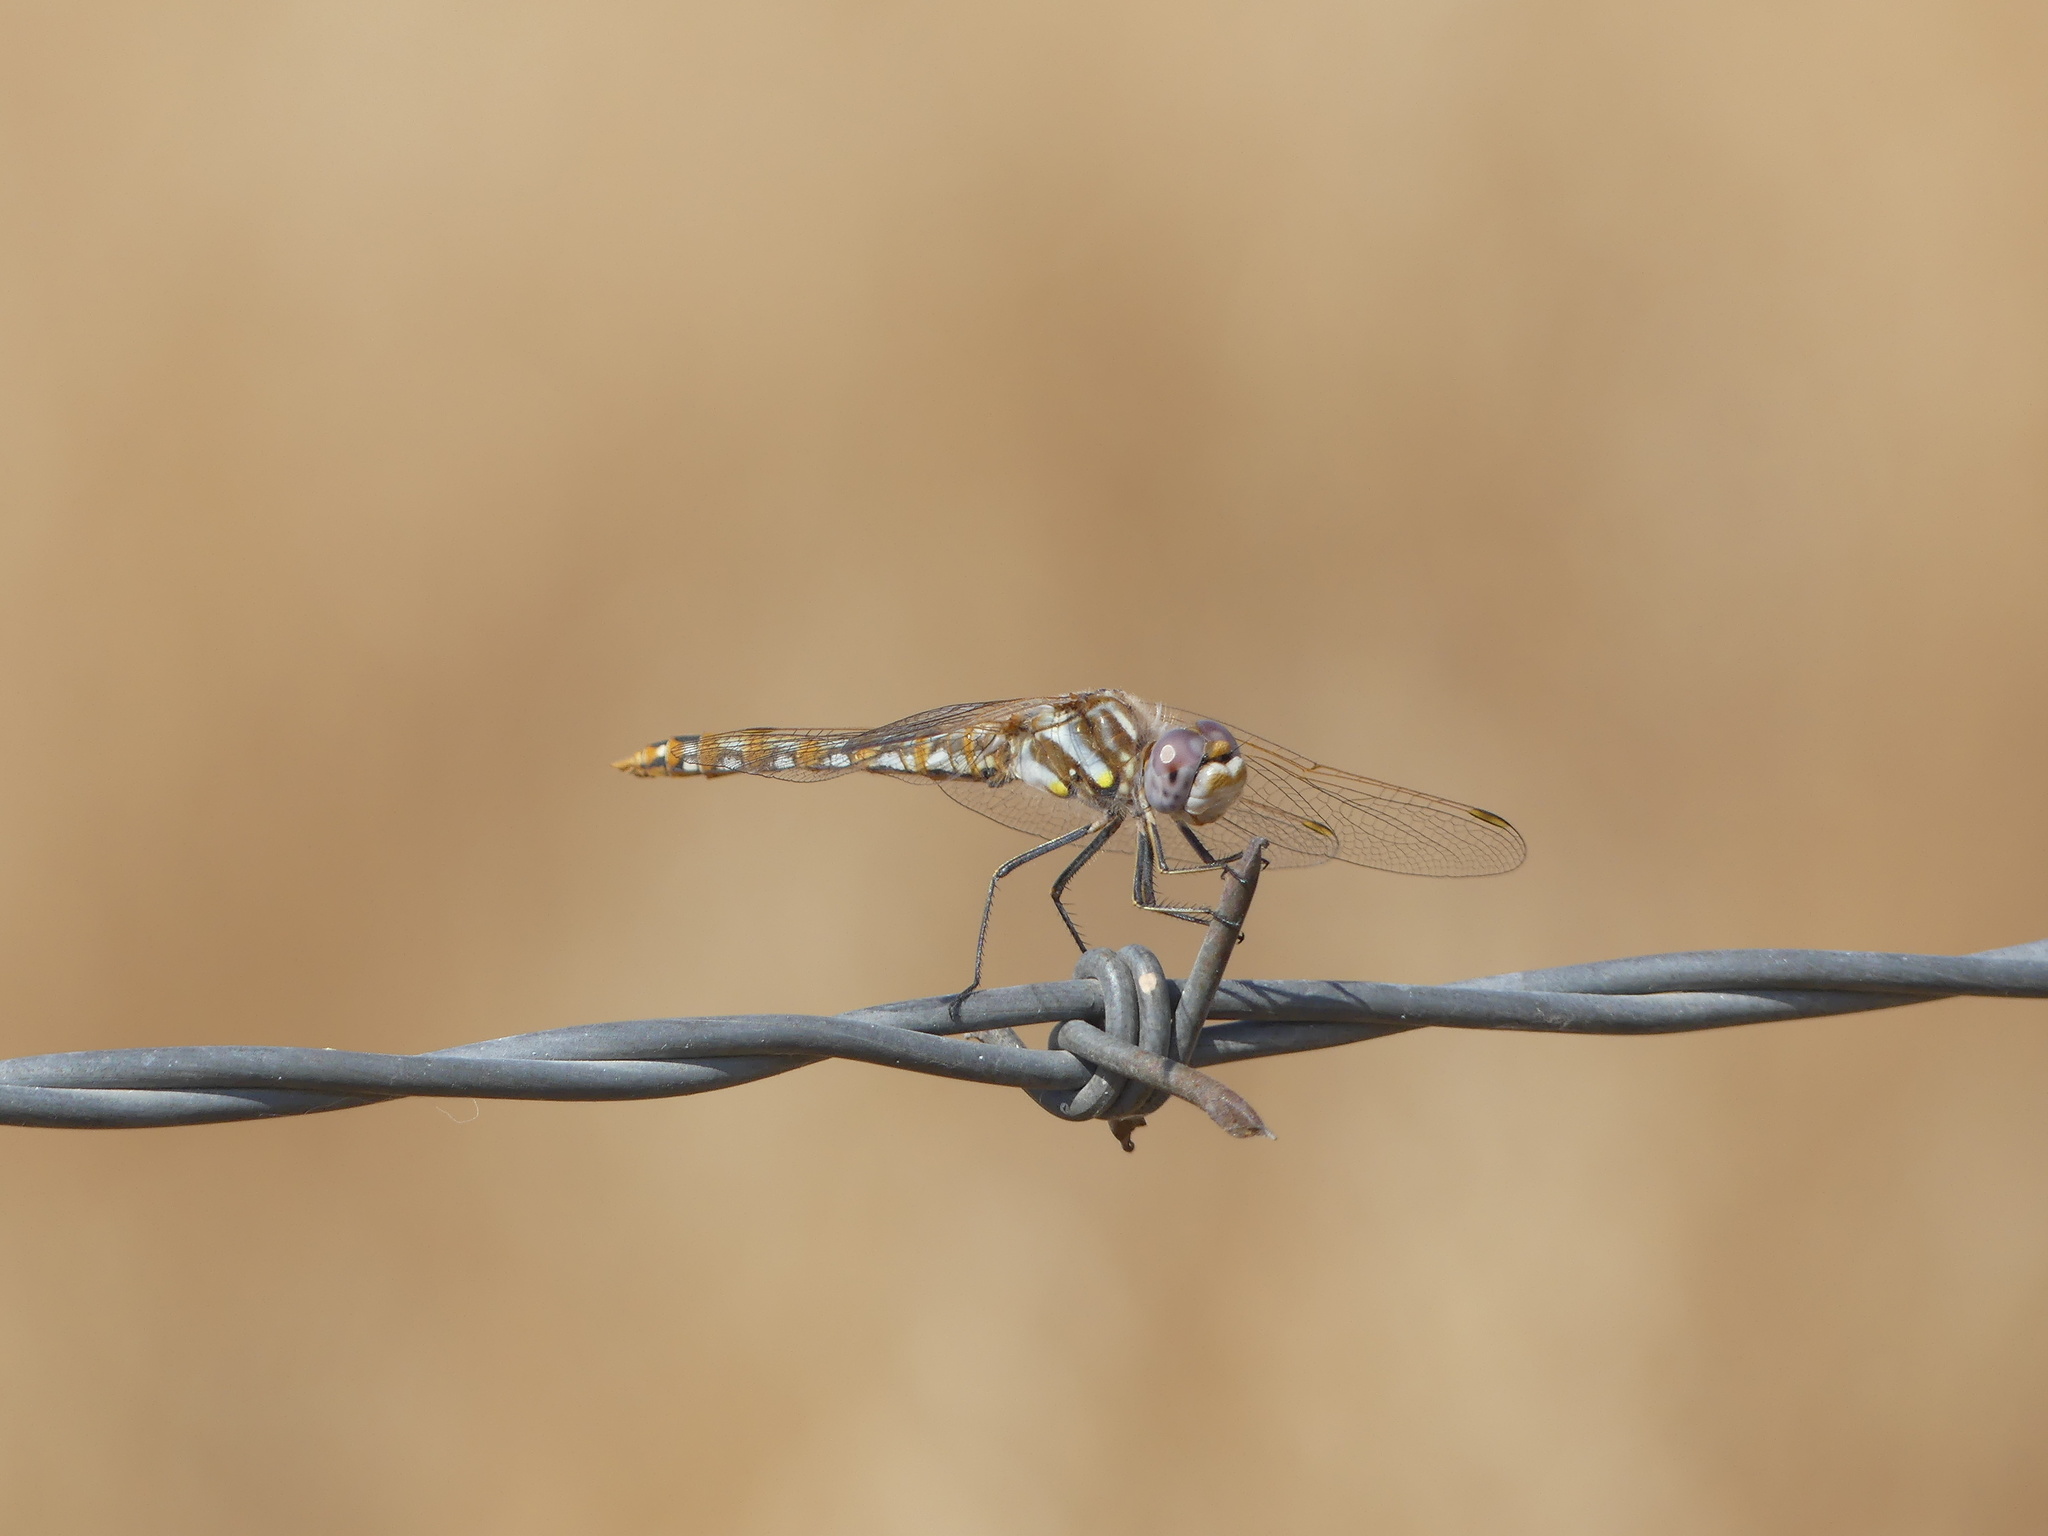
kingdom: Animalia
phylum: Arthropoda
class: Insecta
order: Odonata
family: Libellulidae
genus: Sympetrum
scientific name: Sympetrum corruptum
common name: Variegated meadowhawk
